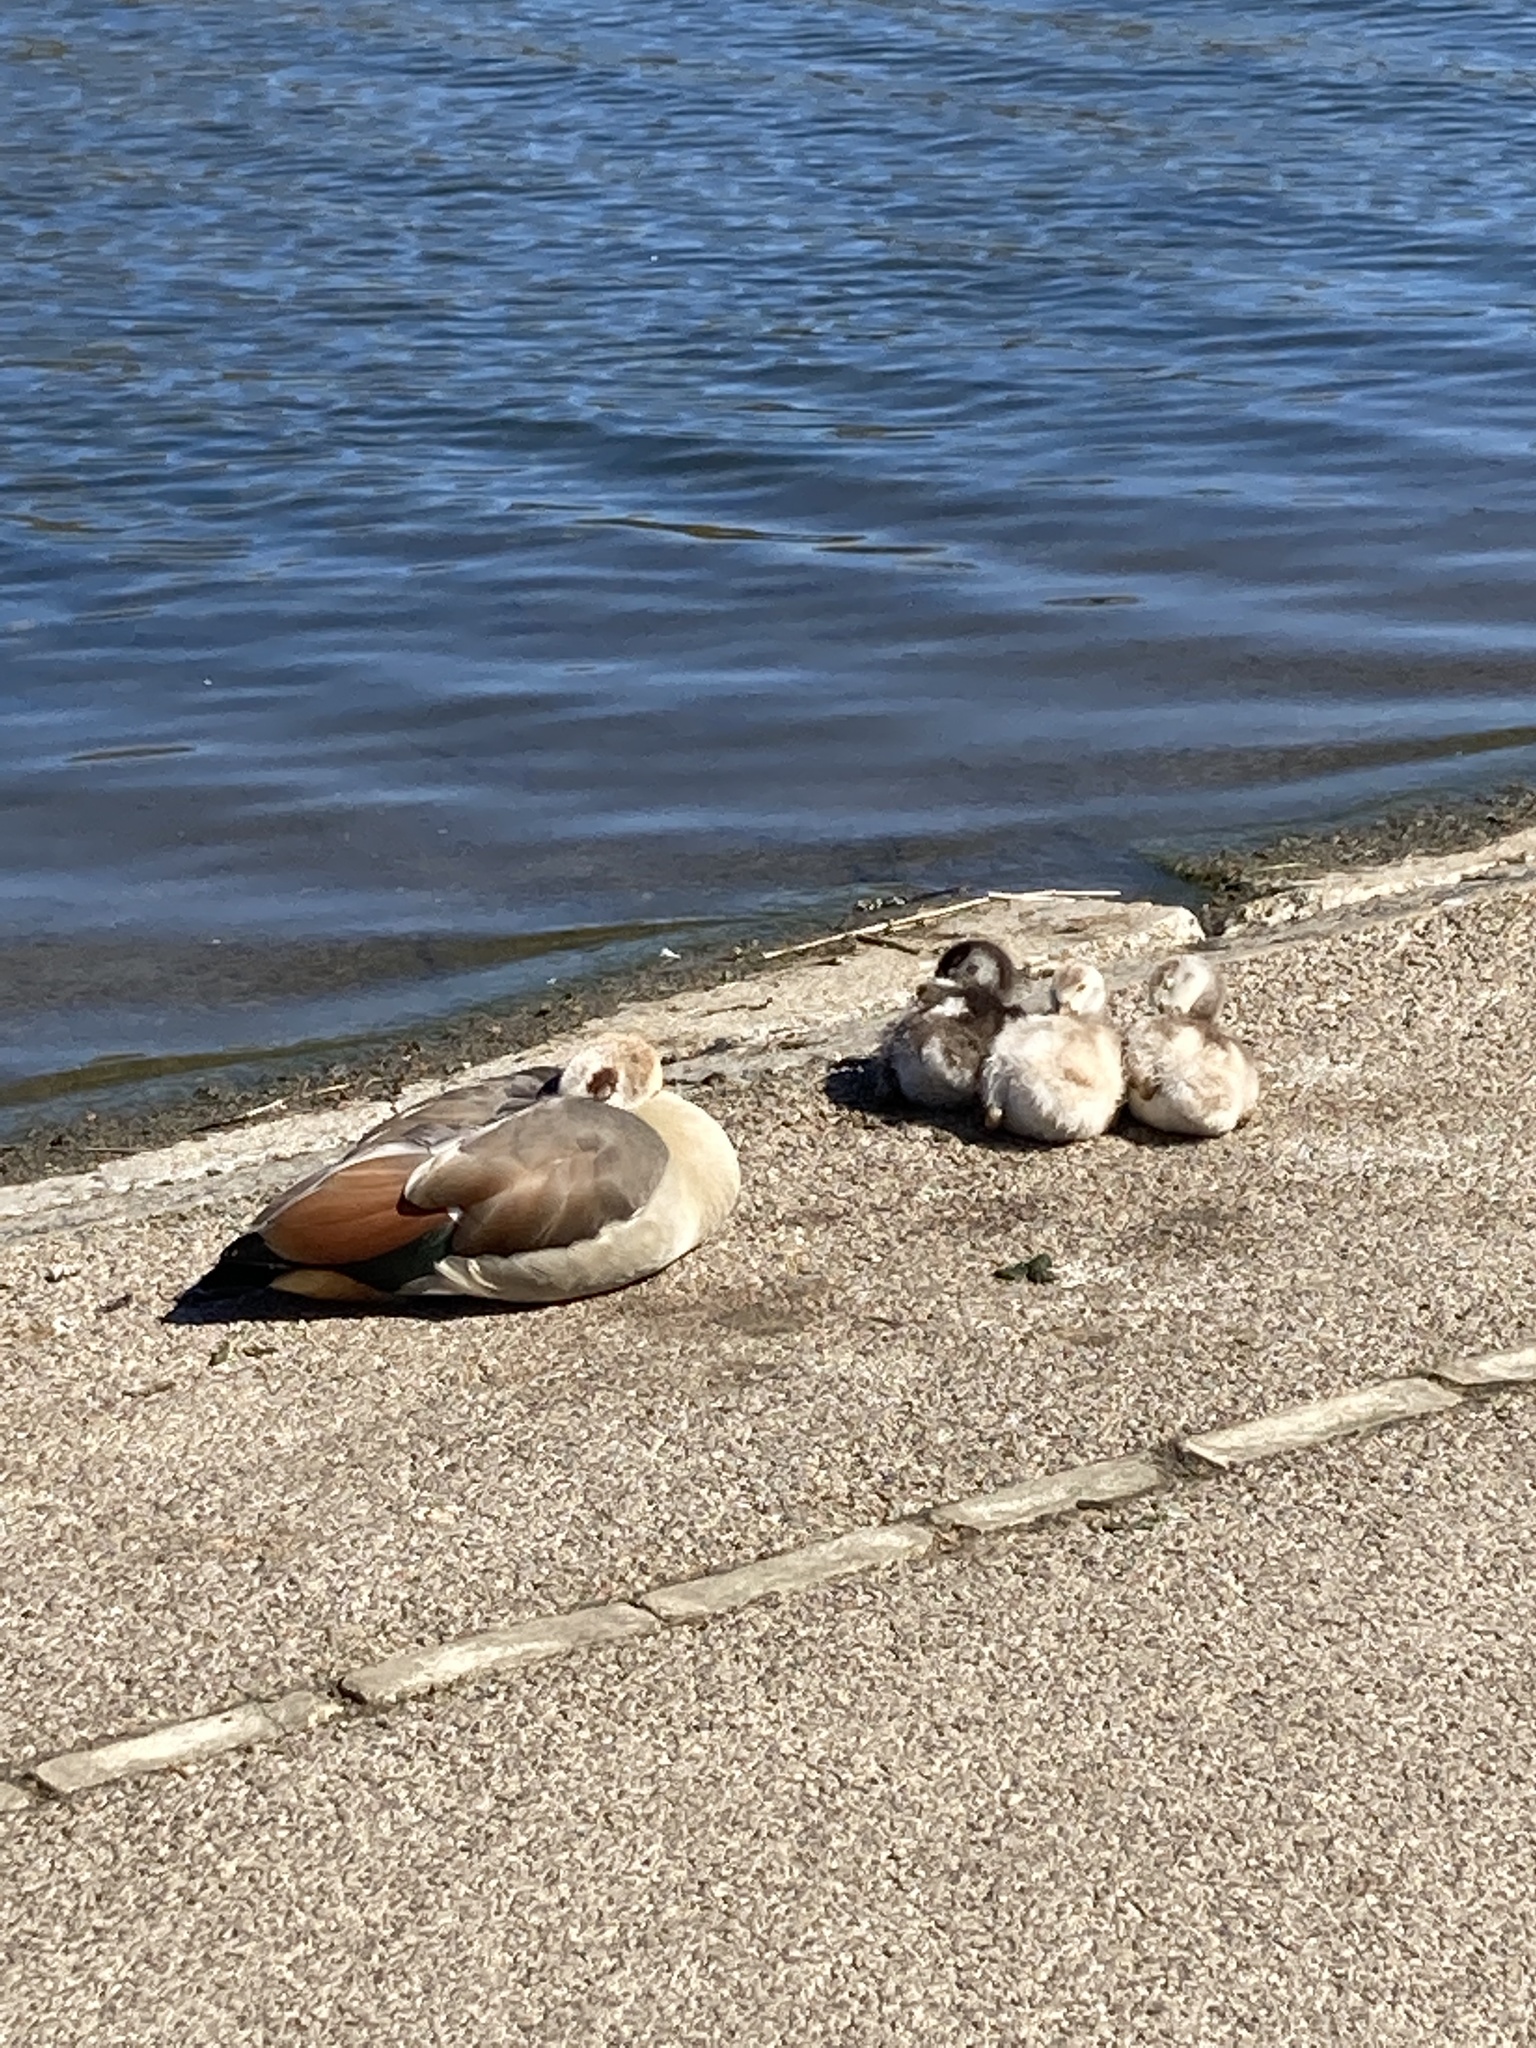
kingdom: Animalia
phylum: Chordata
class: Aves
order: Anseriformes
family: Anatidae
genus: Alopochen
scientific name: Alopochen aegyptiaca
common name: Egyptian goose
